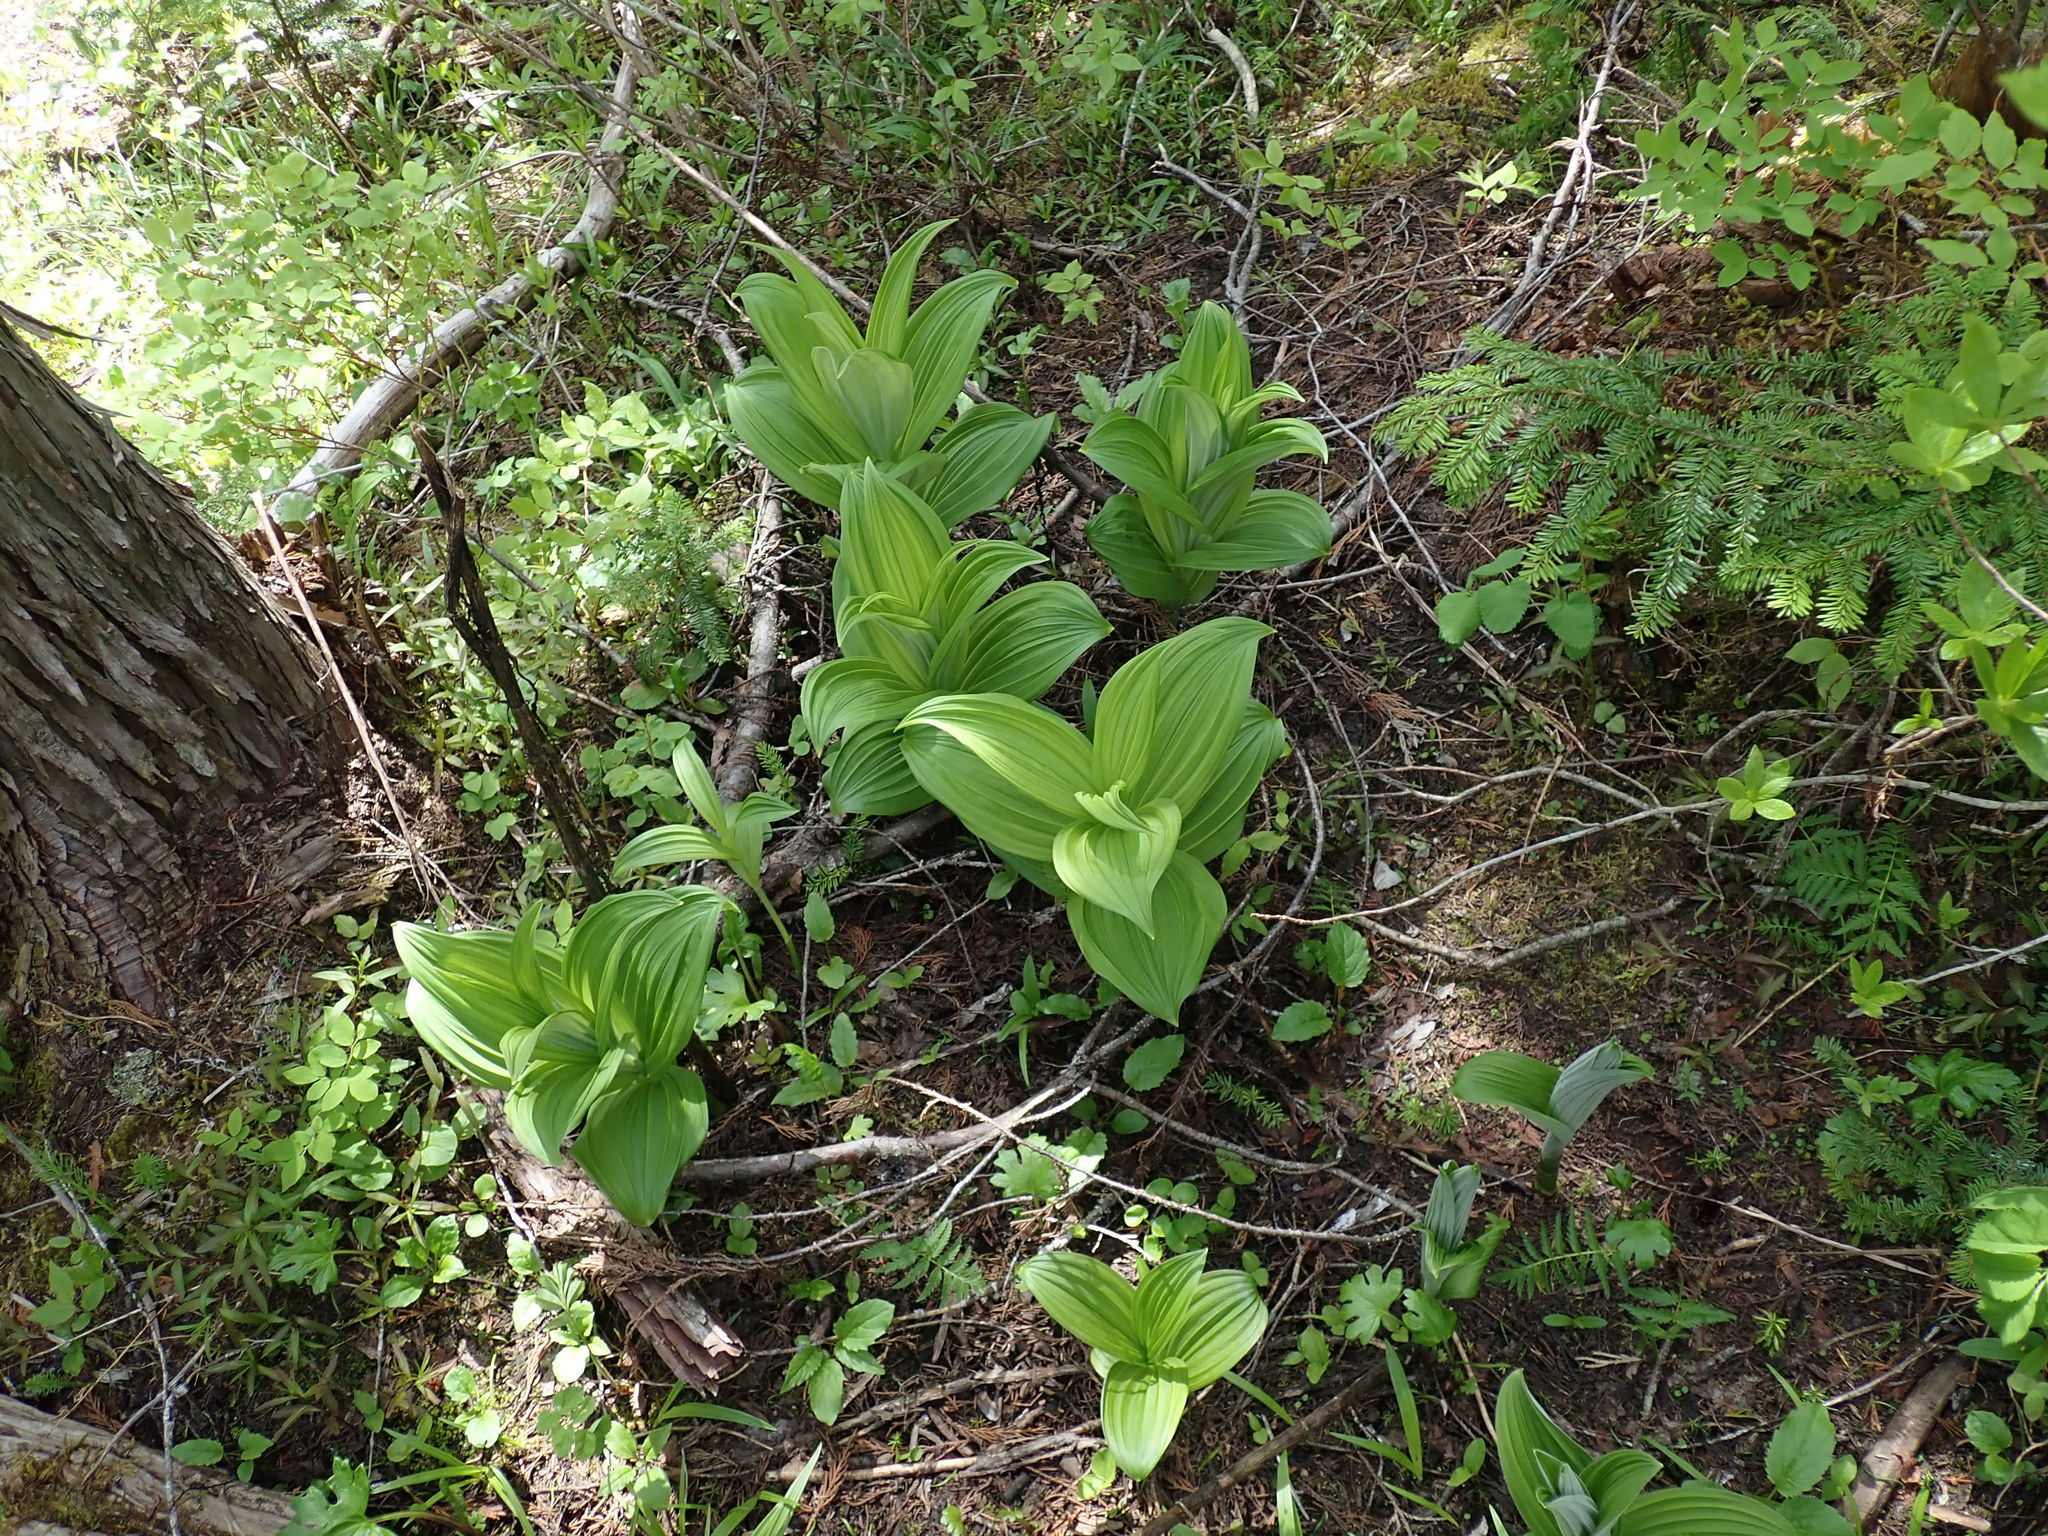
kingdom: Plantae
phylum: Tracheophyta
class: Liliopsida
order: Liliales
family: Melanthiaceae
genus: Veratrum
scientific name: Veratrum viride
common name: American false hellebore
